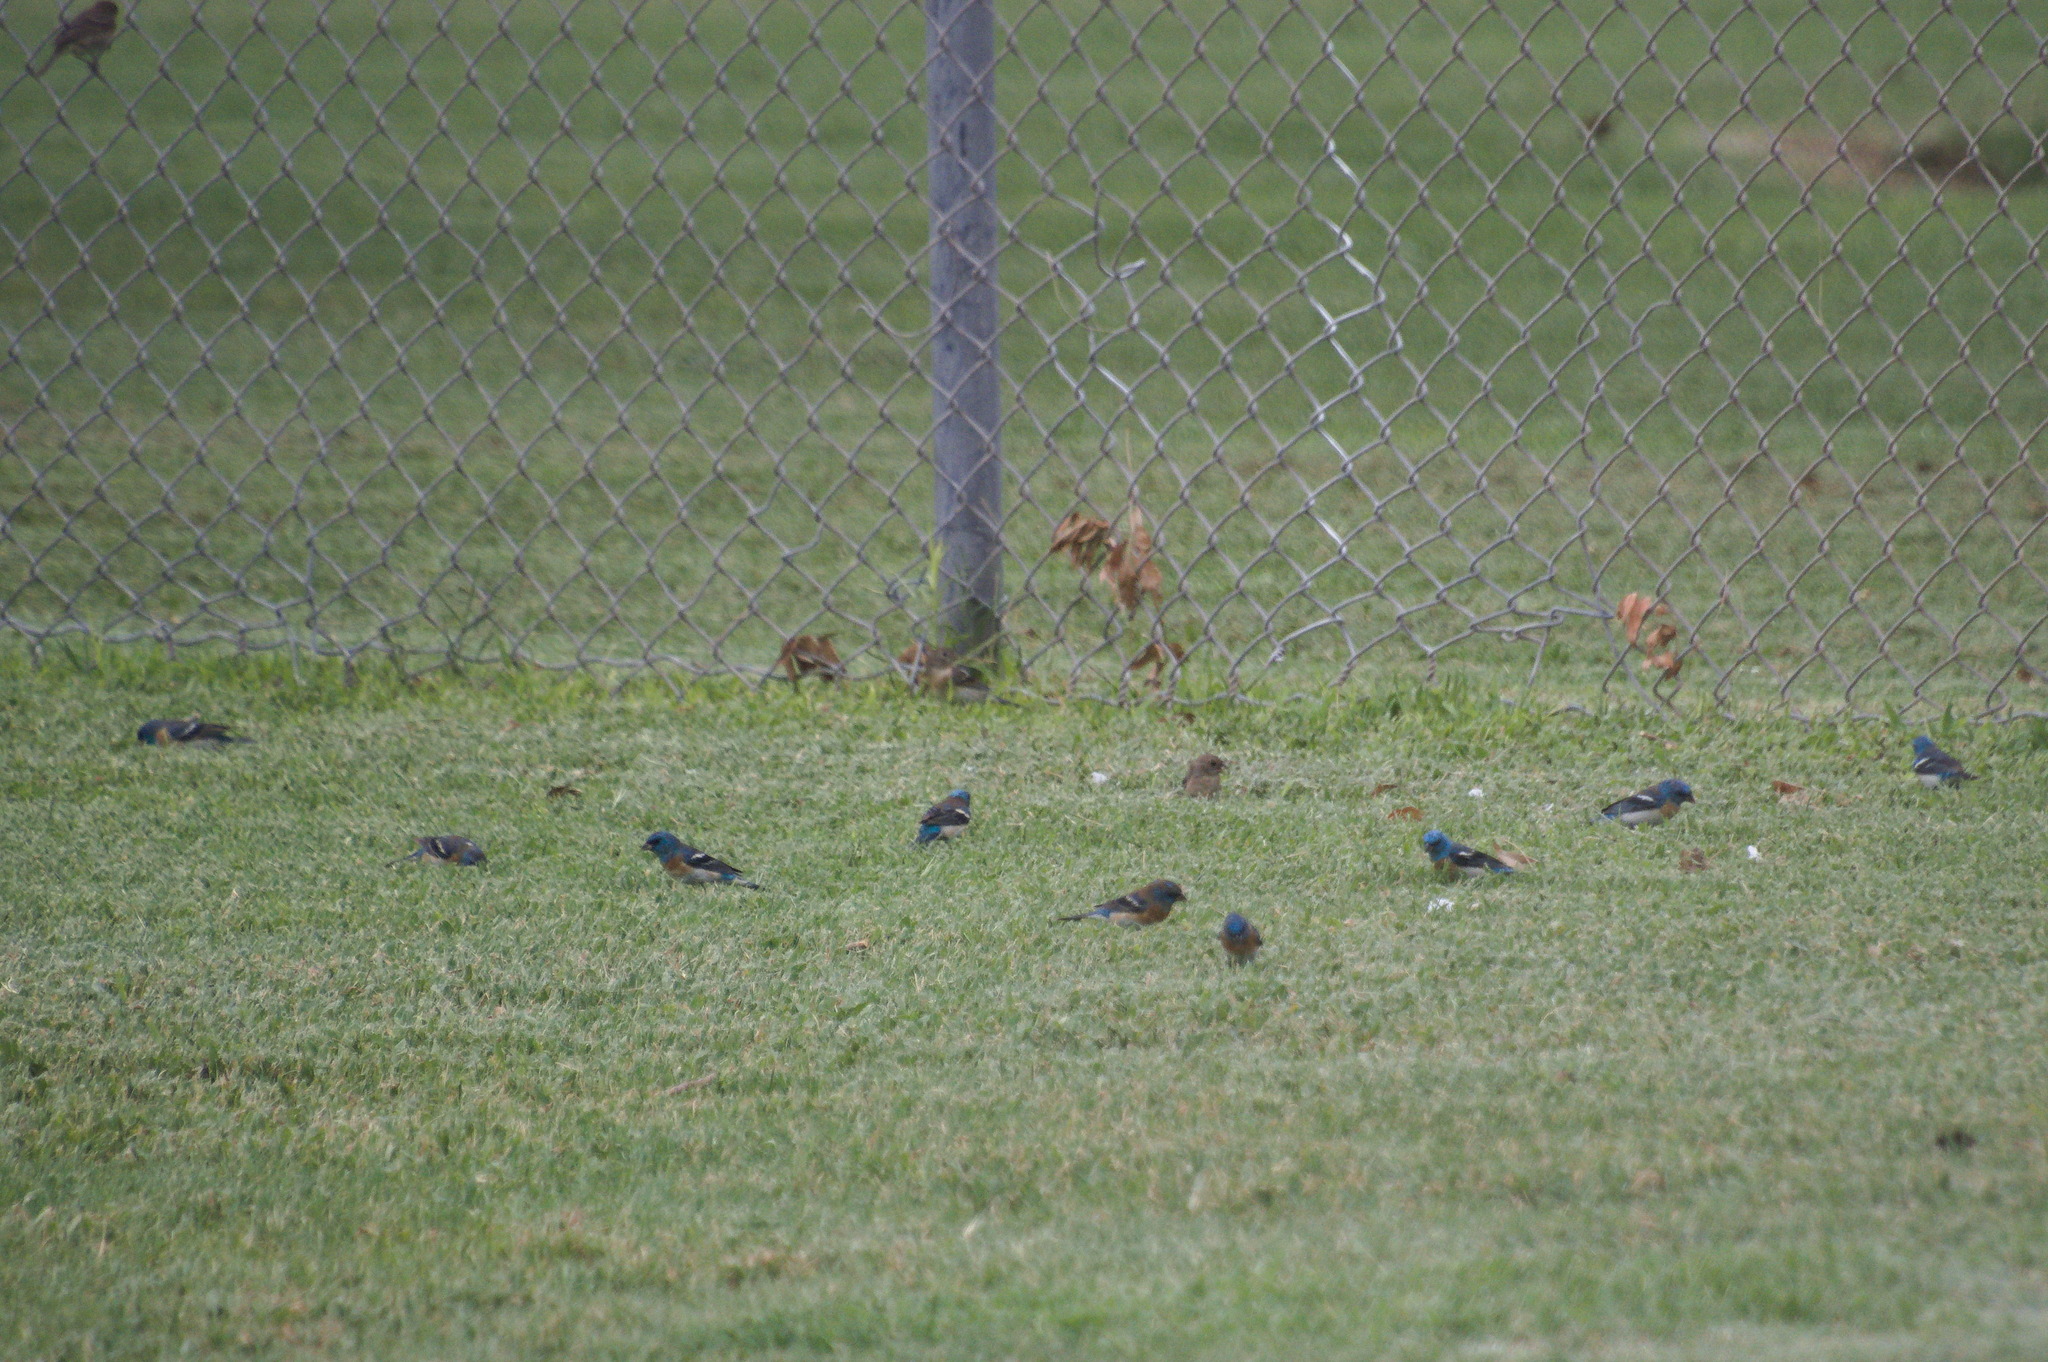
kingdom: Animalia
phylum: Chordata
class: Aves
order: Passeriformes
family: Cardinalidae
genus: Passerina
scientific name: Passerina amoena
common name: Lazuli bunting
